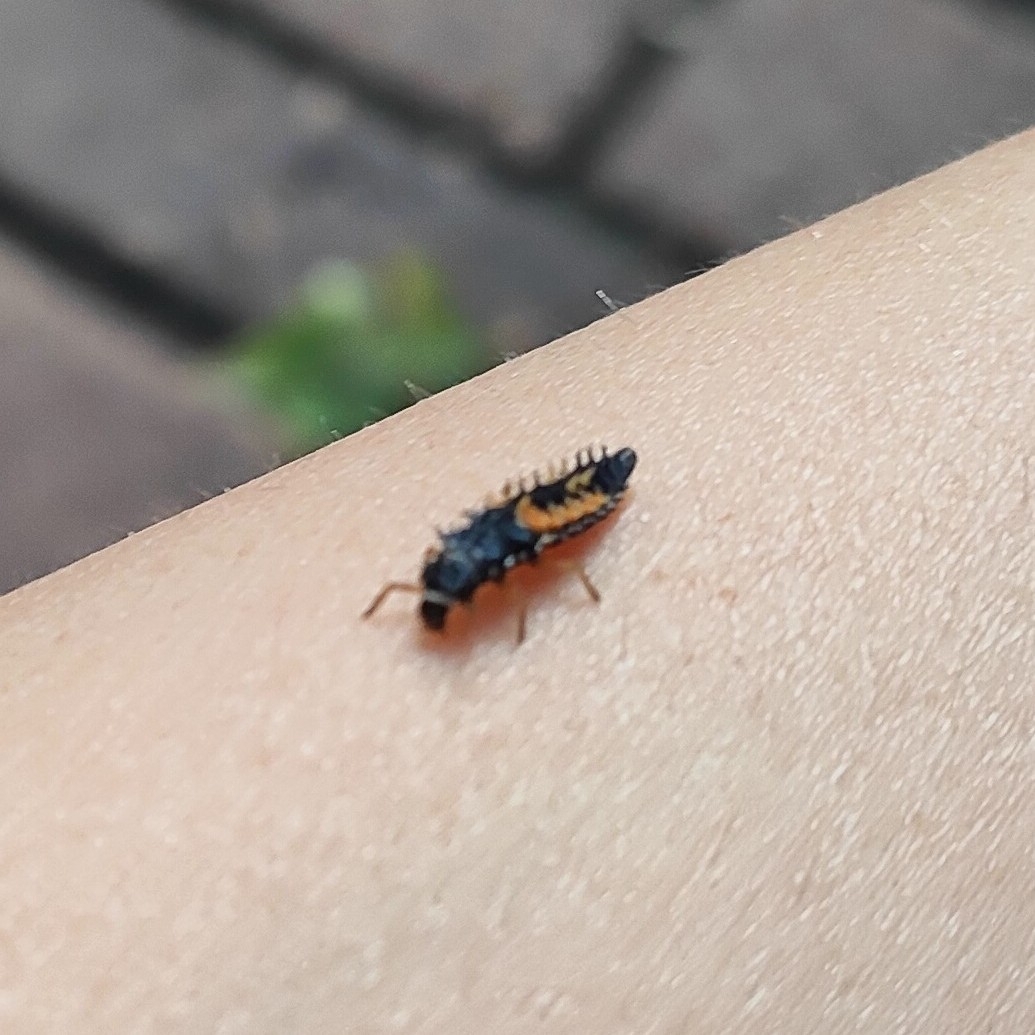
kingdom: Animalia
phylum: Arthropoda
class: Insecta
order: Coleoptera
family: Coccinellidae
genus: Harmonia
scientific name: Harmonia axyridis
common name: Harlequin ladybird
